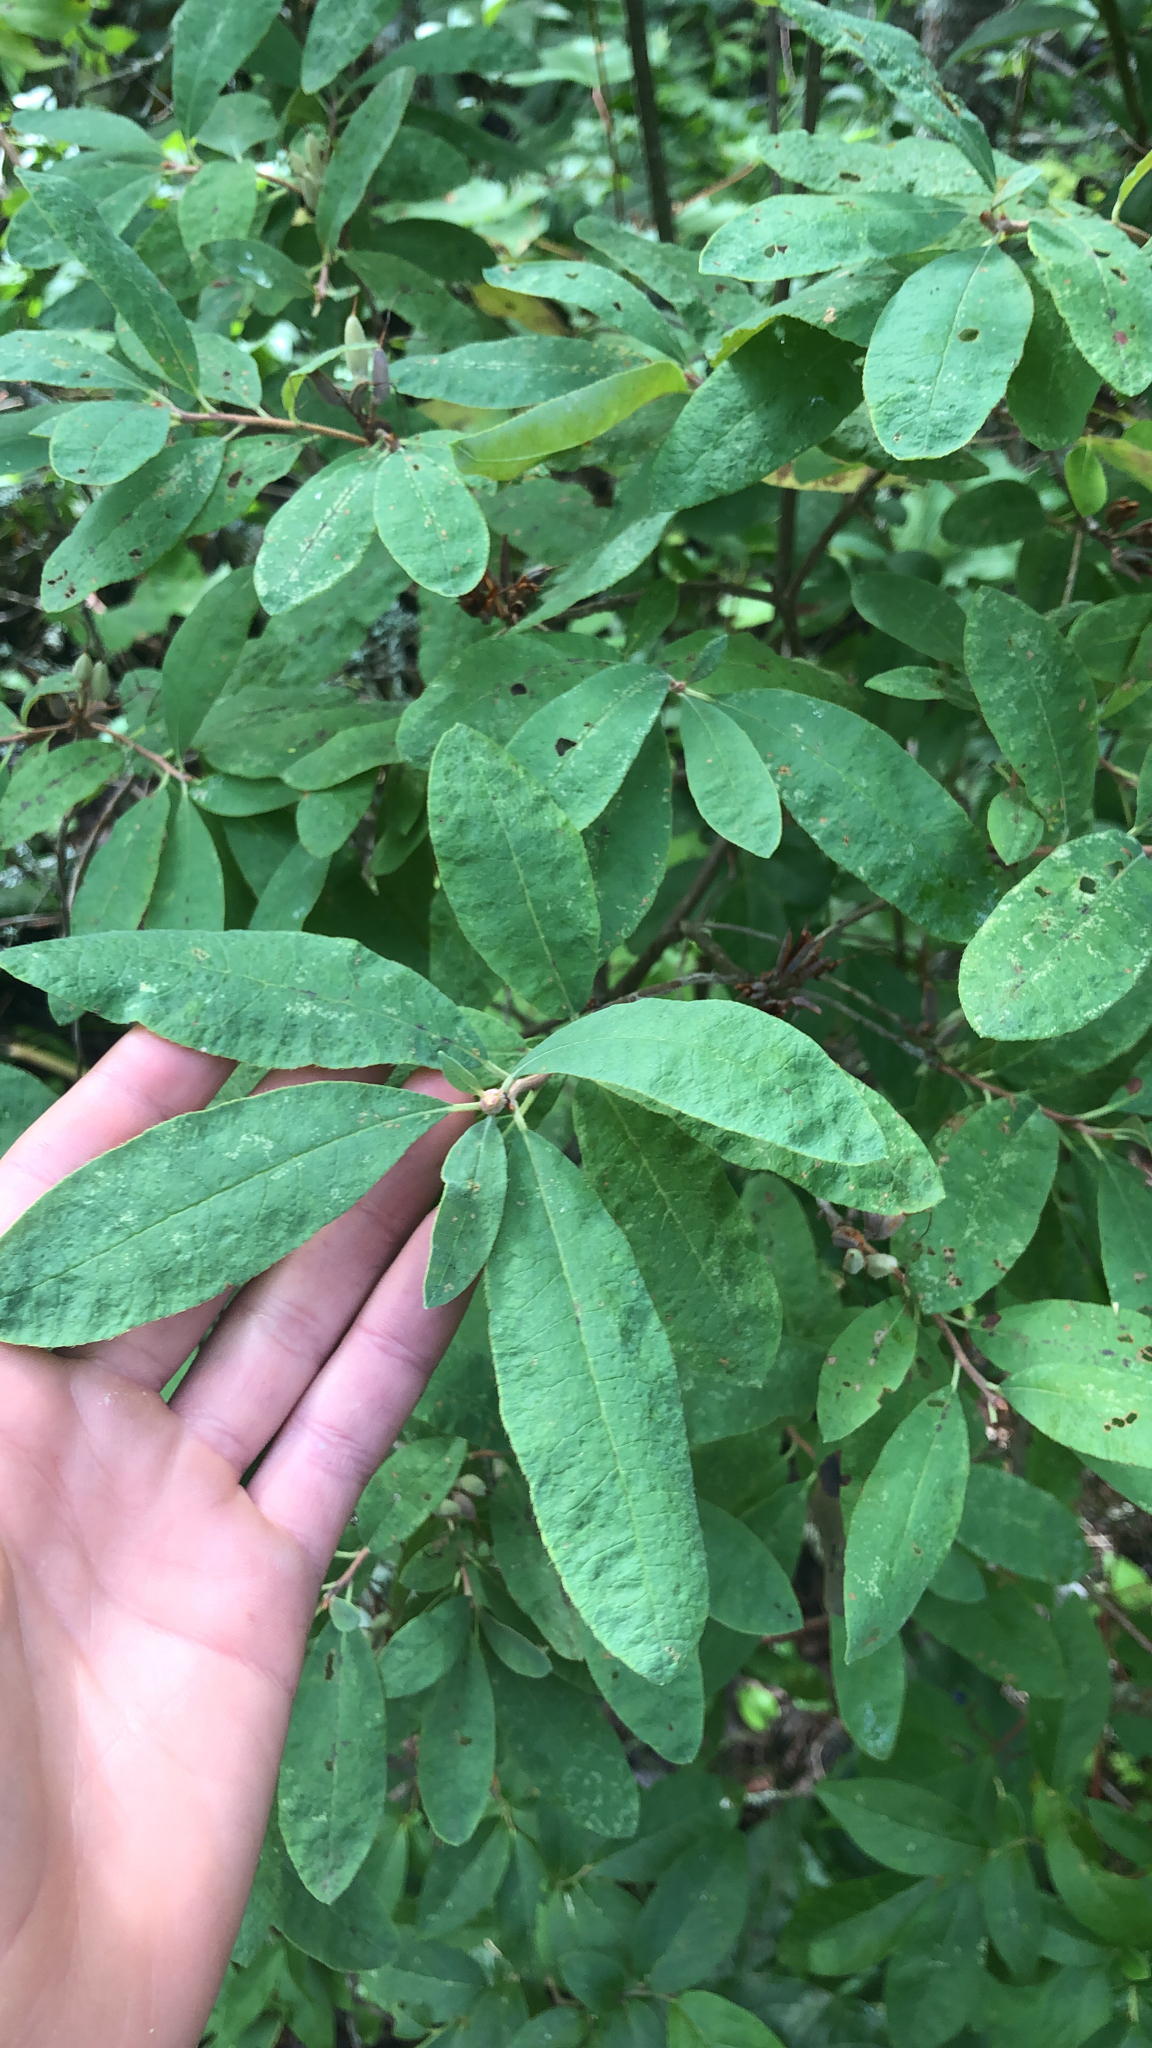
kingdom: Plantae
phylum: Tracheophyta
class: Magnoliopsida
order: Ericales
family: Ericaceae
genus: Rhododendron
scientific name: Rhododendron canadense
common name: Rhodora
